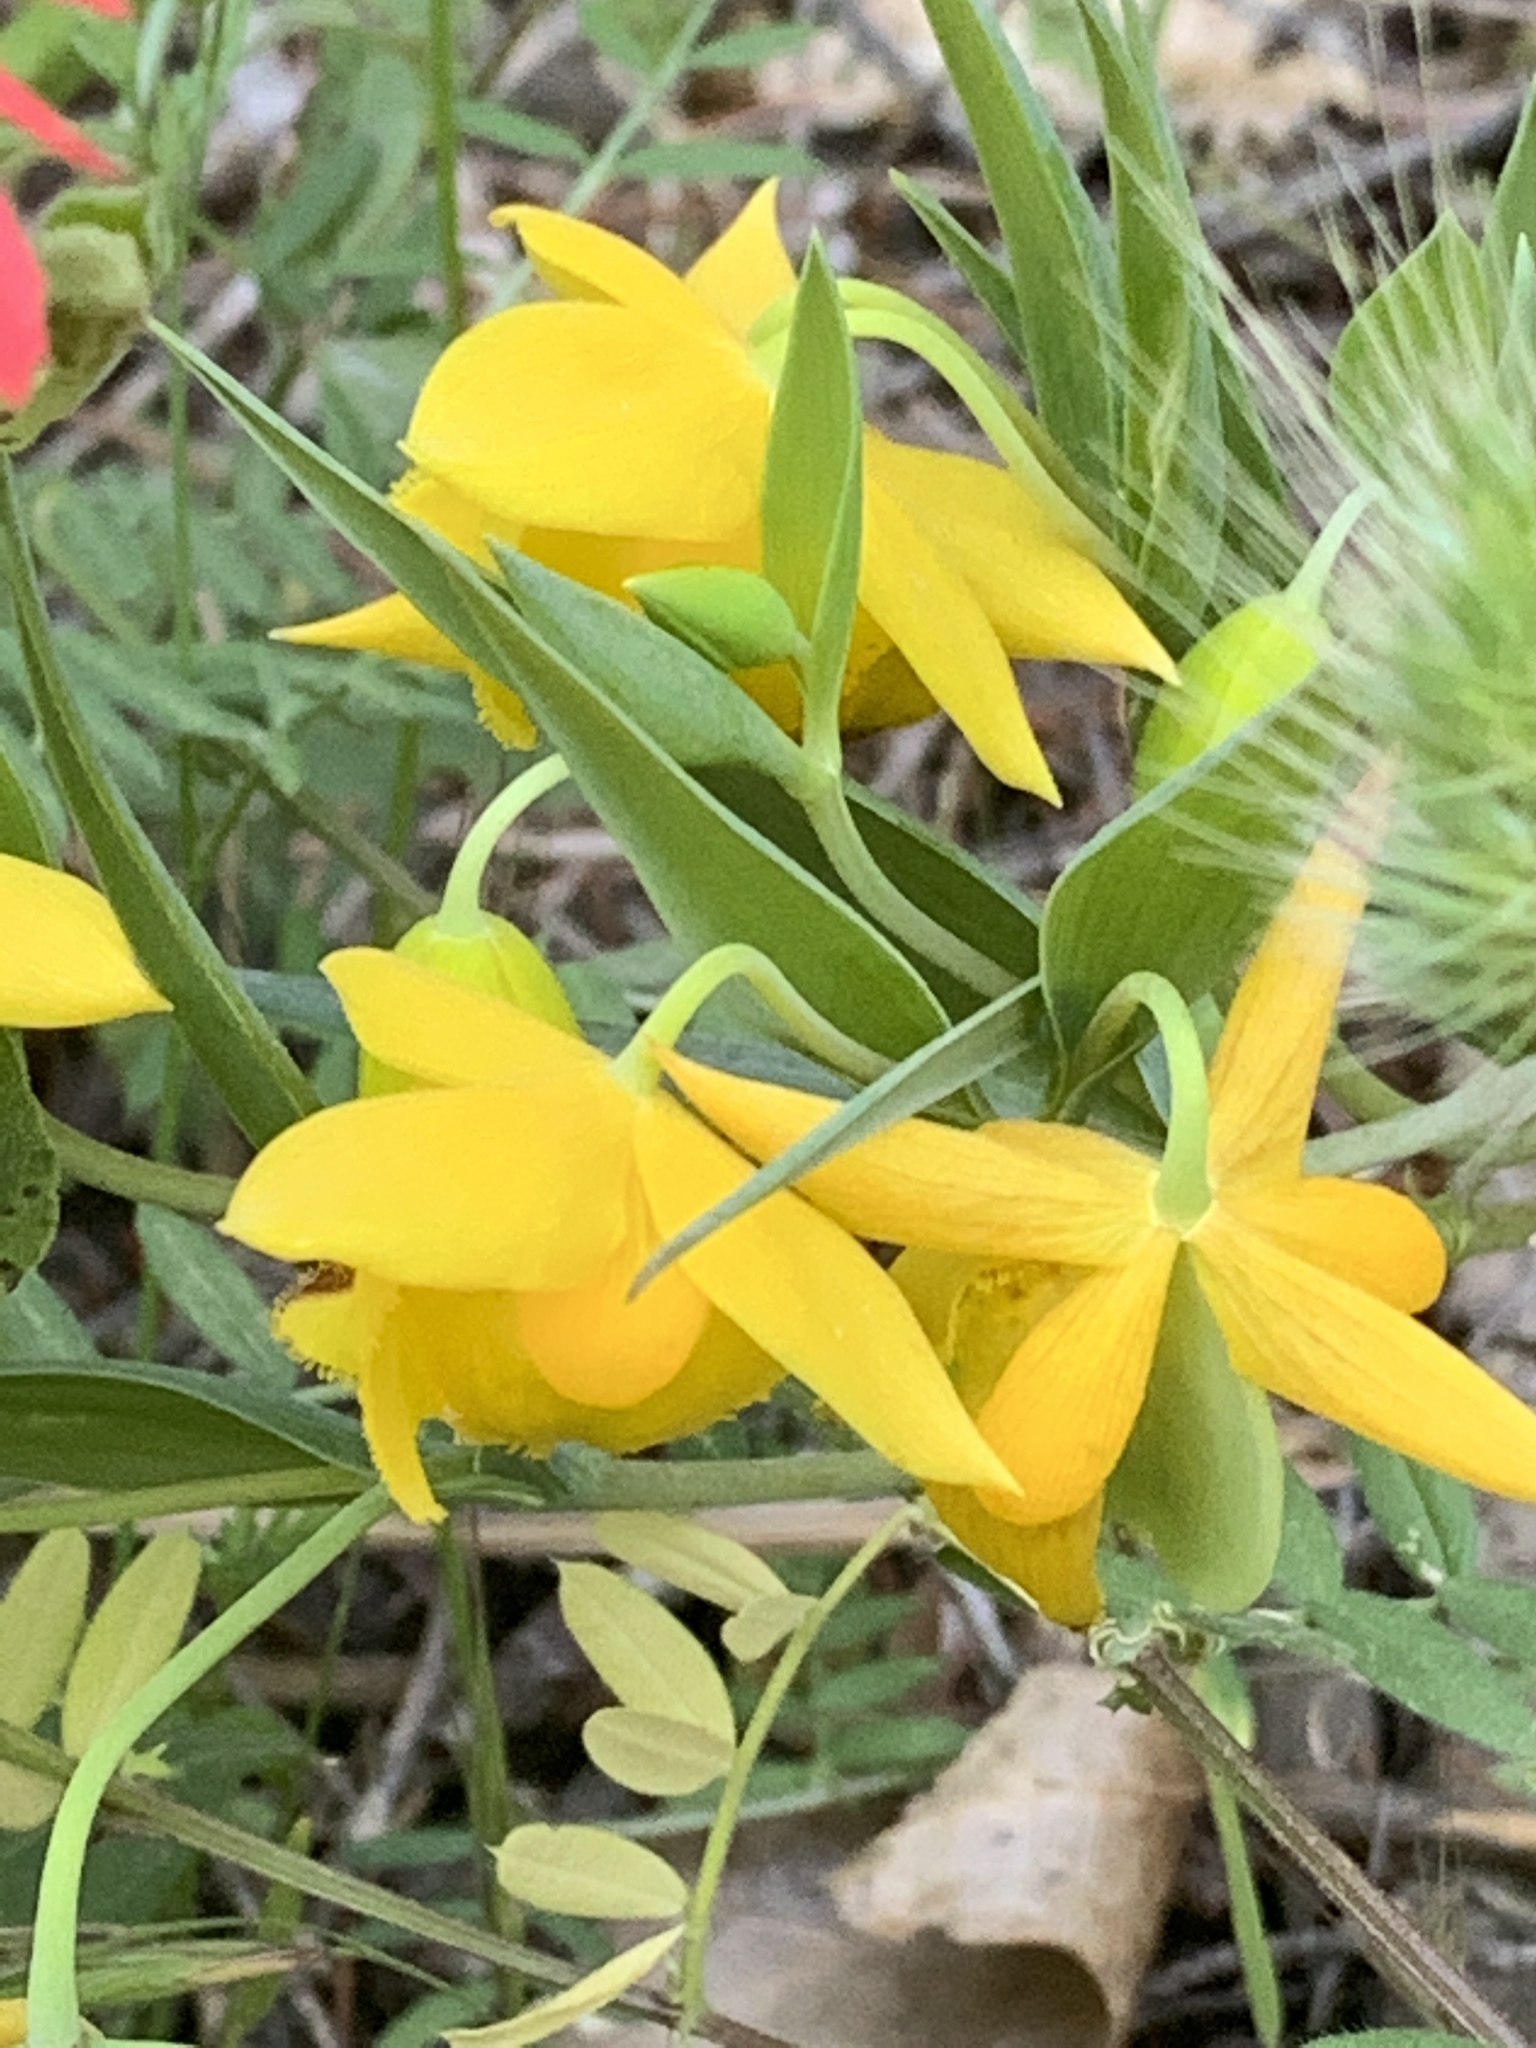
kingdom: Plantae
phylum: Tracheophyta
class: Liliopsida
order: Liliales
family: Liliaceae
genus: Calochortus
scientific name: Calochortus amabilis
